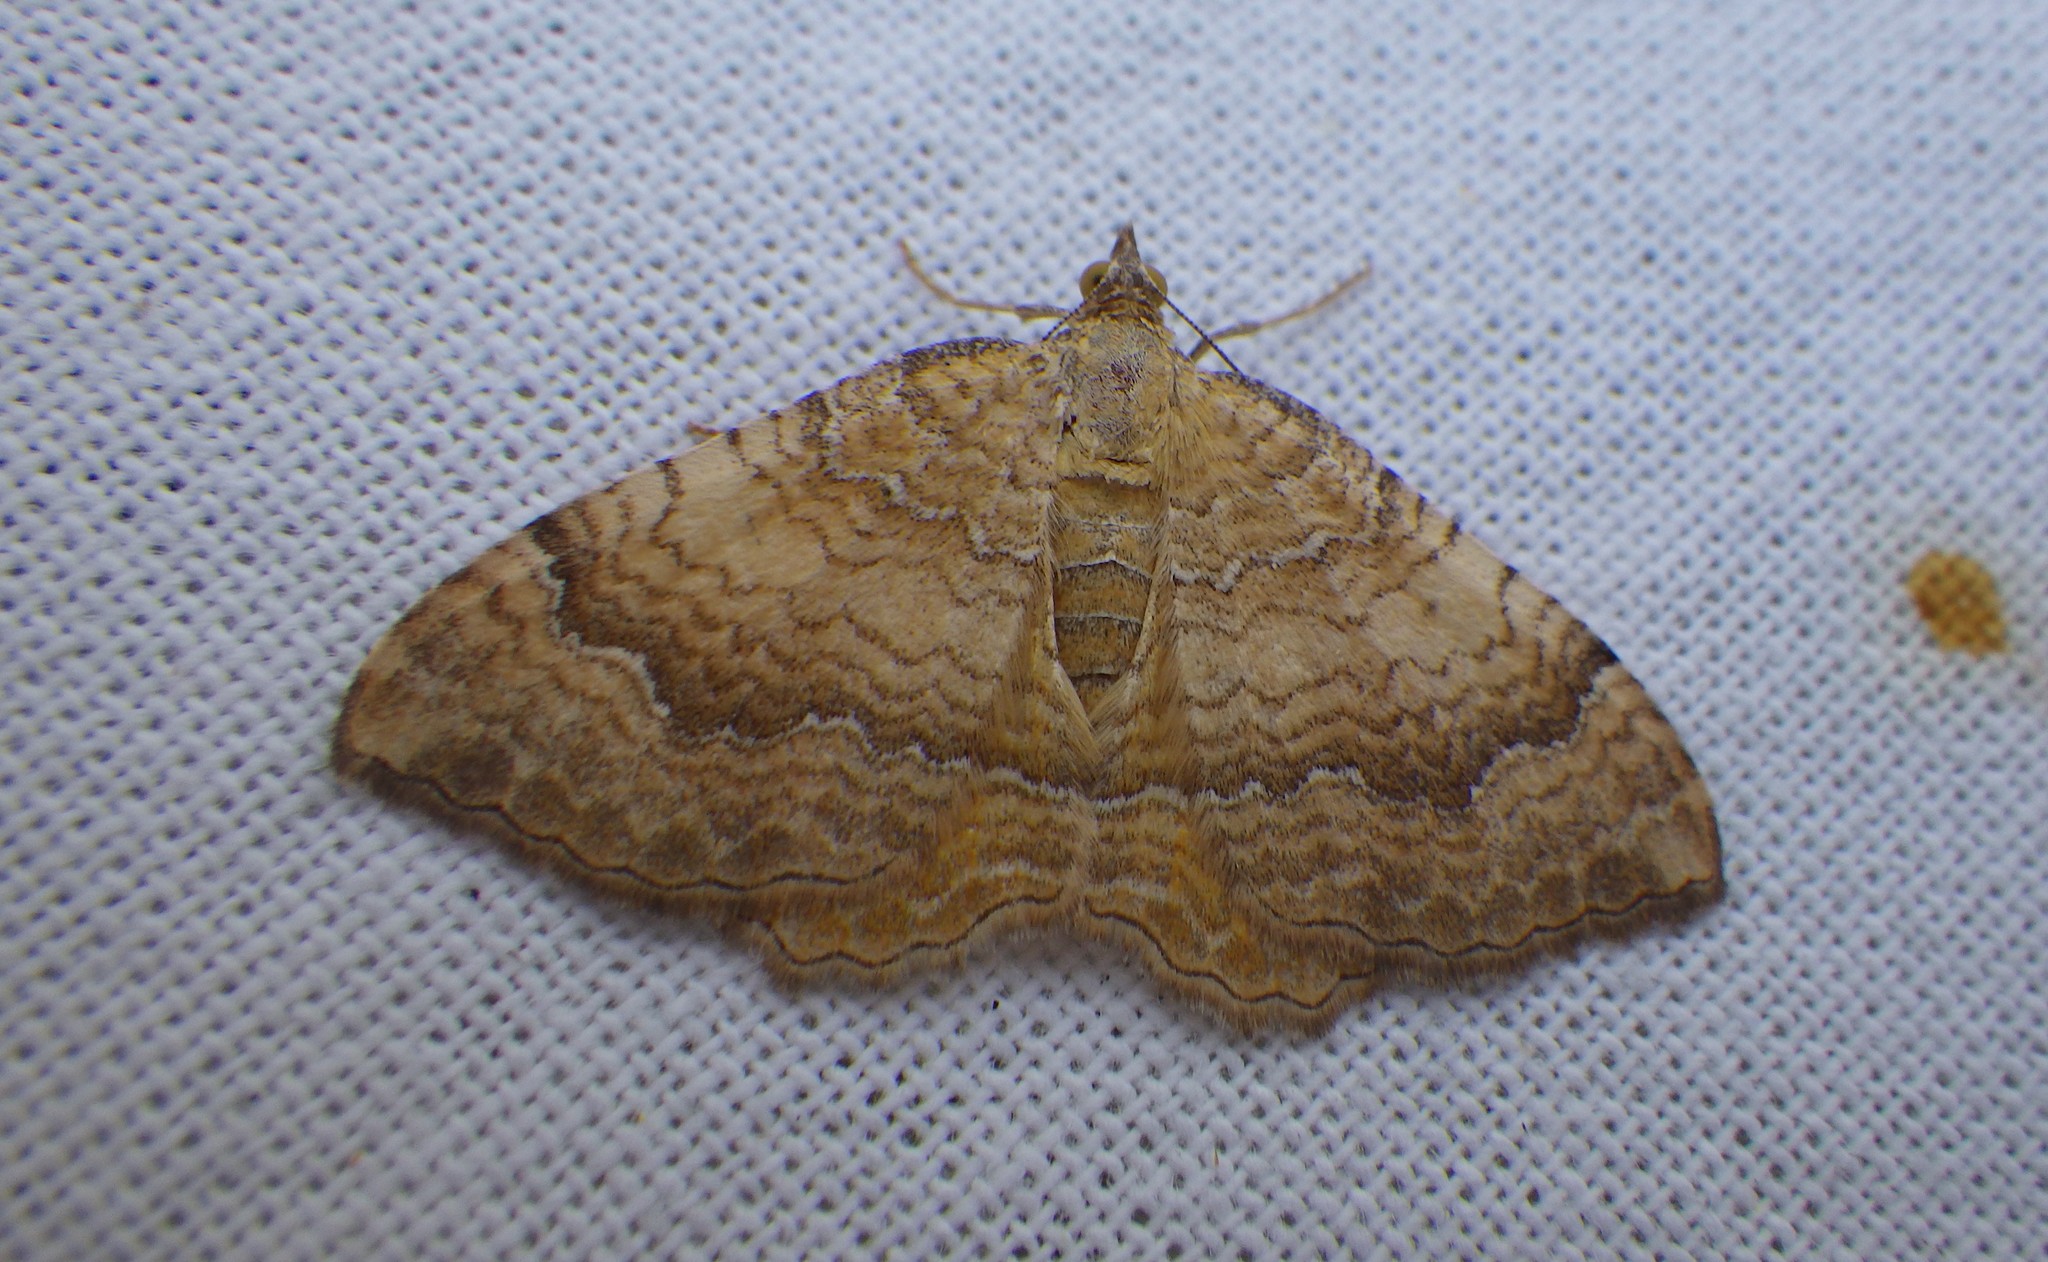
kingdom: Animalia
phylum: Arthropoda
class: Insecta
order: Lepidoptera
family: Geometridae
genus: Camptogramma
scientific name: Camptogramma bilineata
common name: Yellow shell
